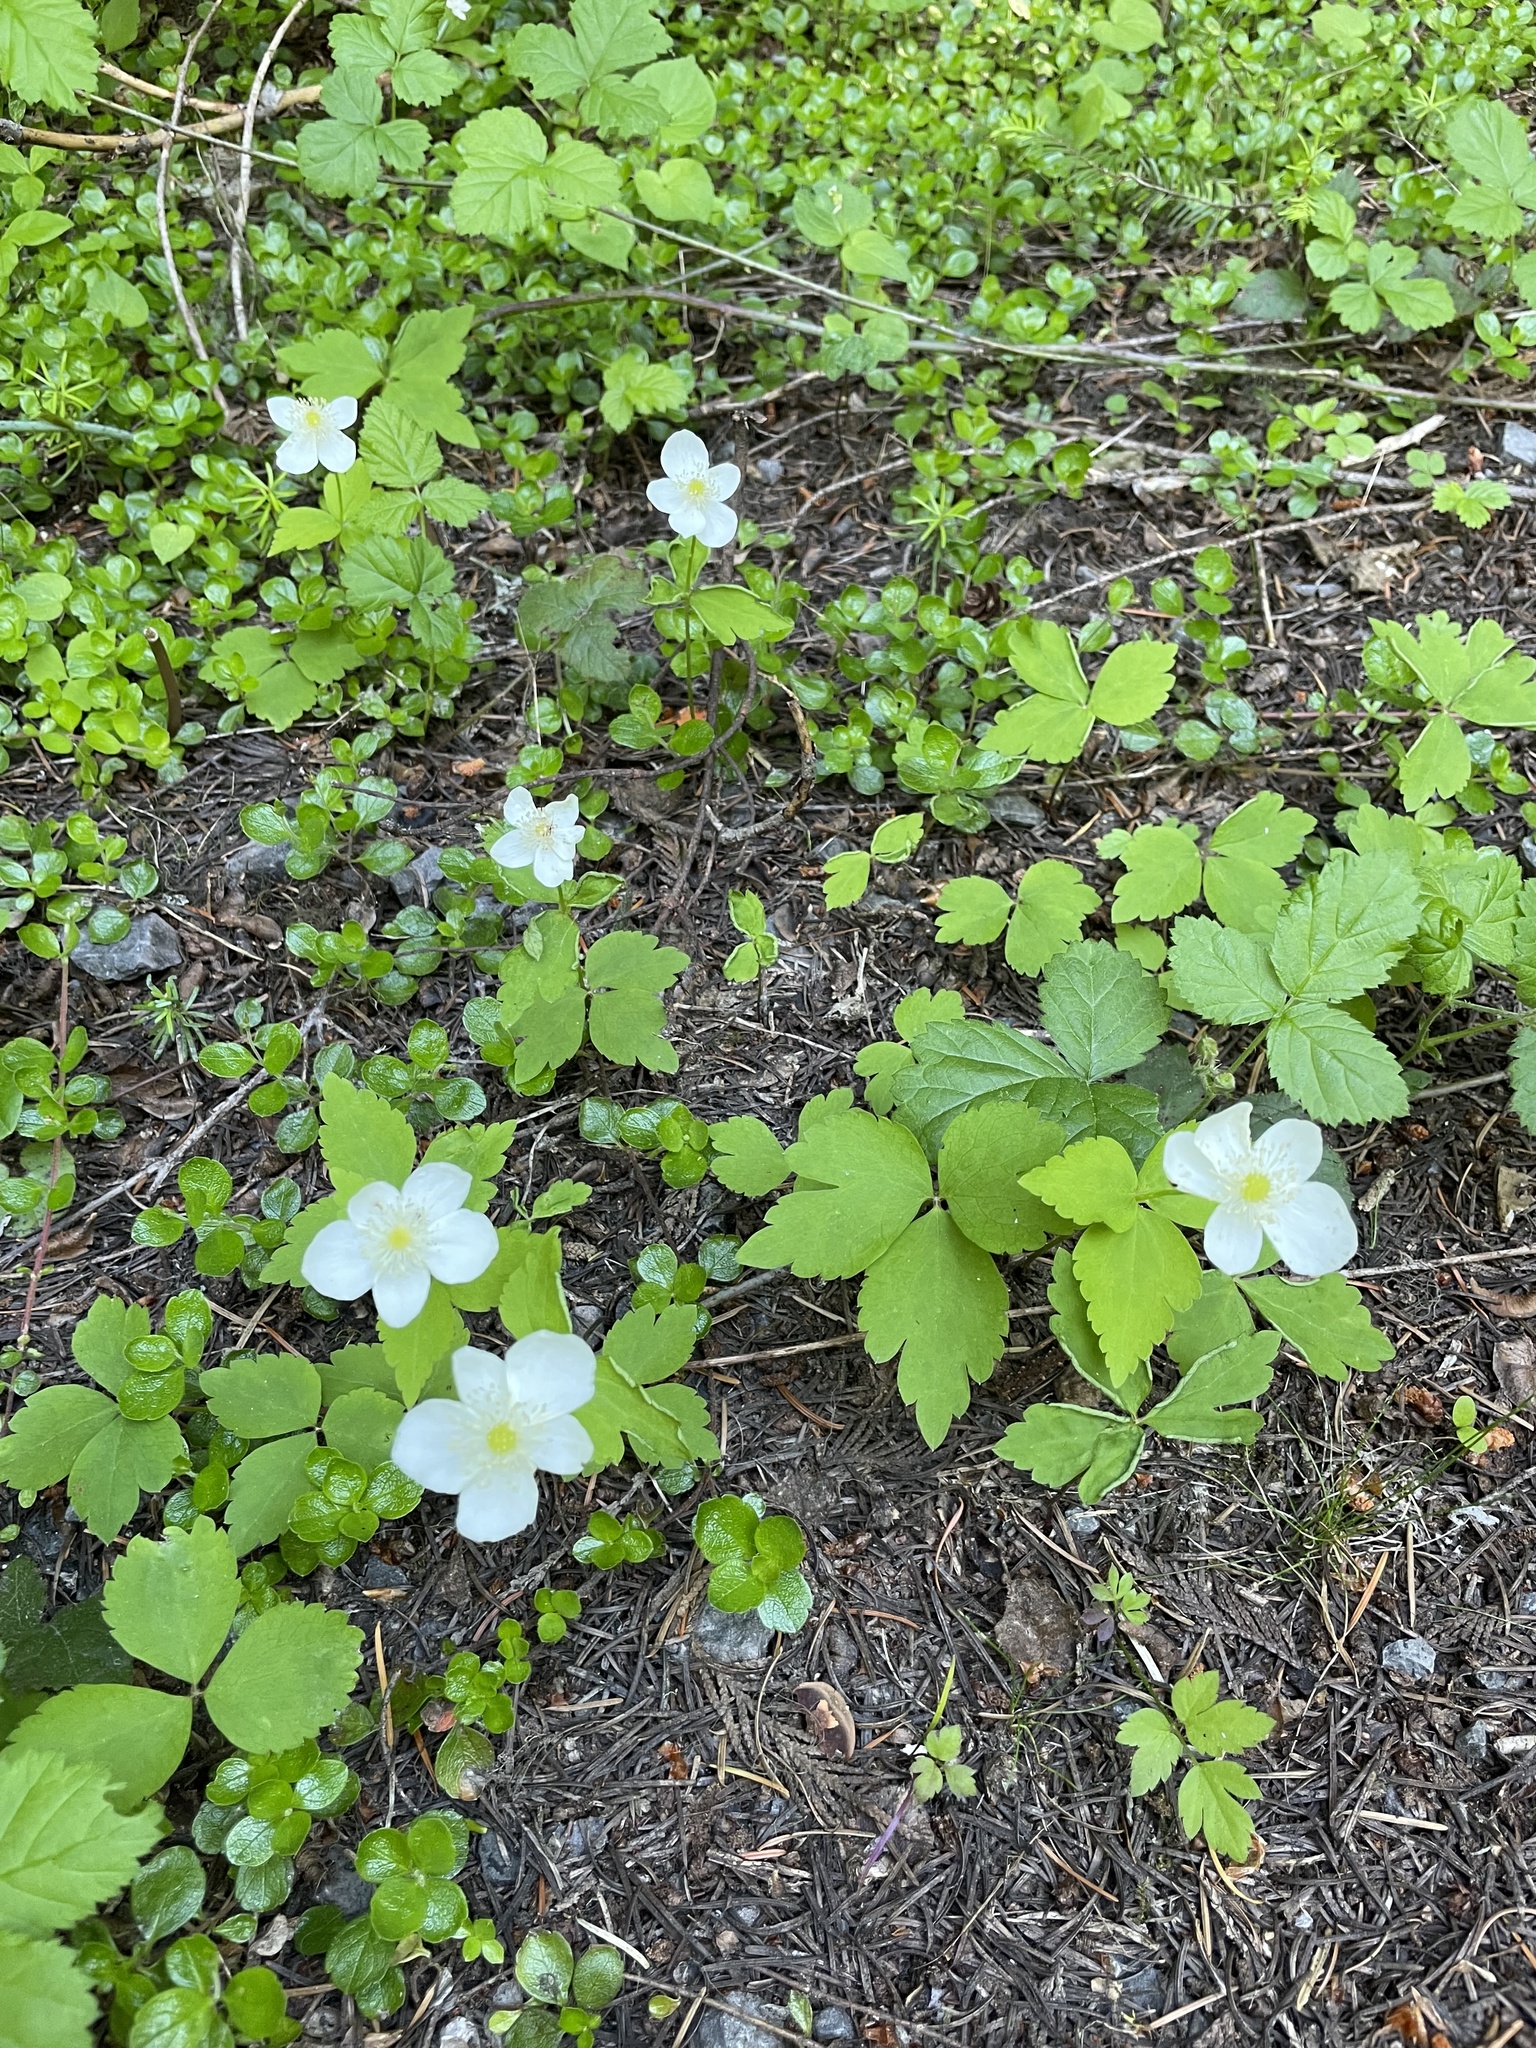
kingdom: Plantae
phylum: Tracheophyta
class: Magnoliopsida
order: Ranunculales
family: Ranunculaceae
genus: Anemonastrum
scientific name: Anemonastrum deltoideum
